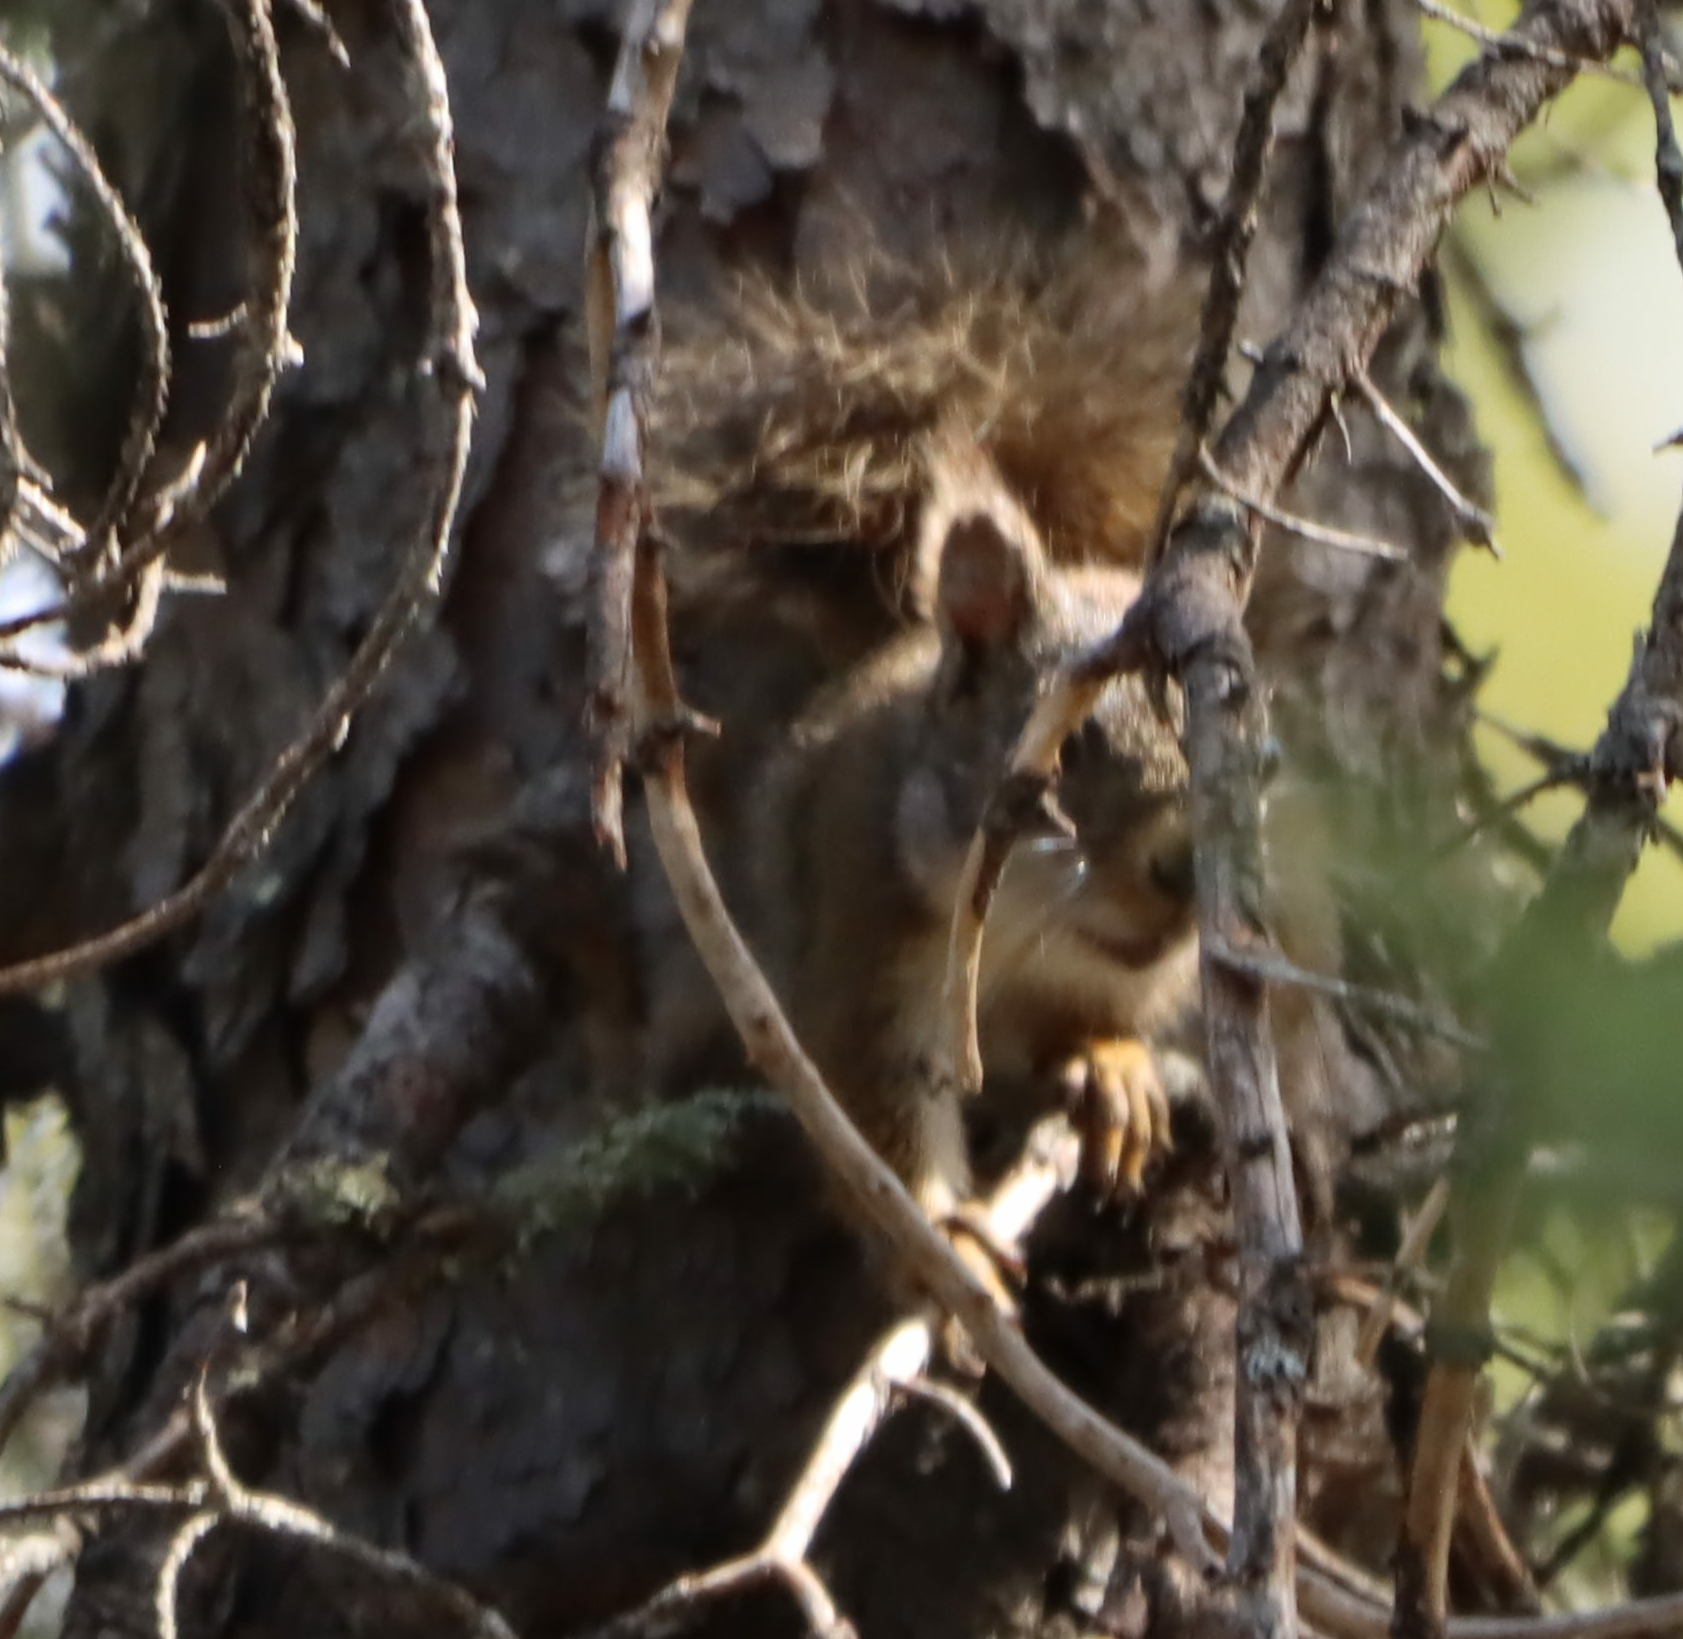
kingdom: Animalia
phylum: Chordata
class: Mammalia
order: Rodentia
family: Sciuridae
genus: Tamiasciurus
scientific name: Tamiasciurus hudsonicus
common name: Red squirrel
